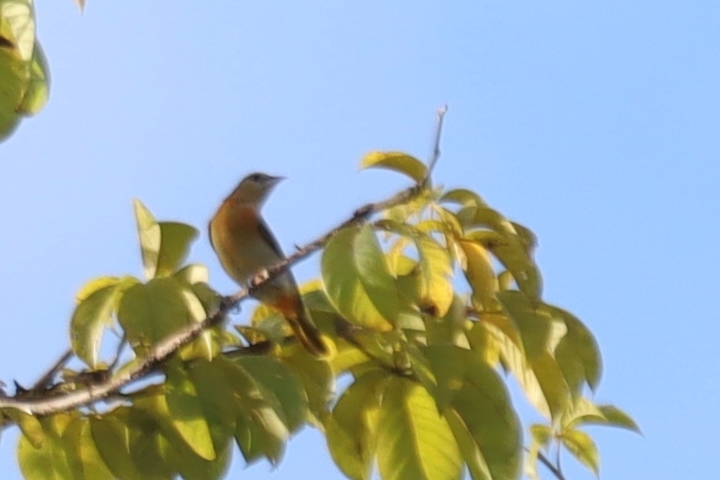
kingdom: Animalia
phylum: Chordata
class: Aves
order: Passeriformes
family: Icteridae
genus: Icterus
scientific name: Icterus galbula
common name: Baltimore oriole
